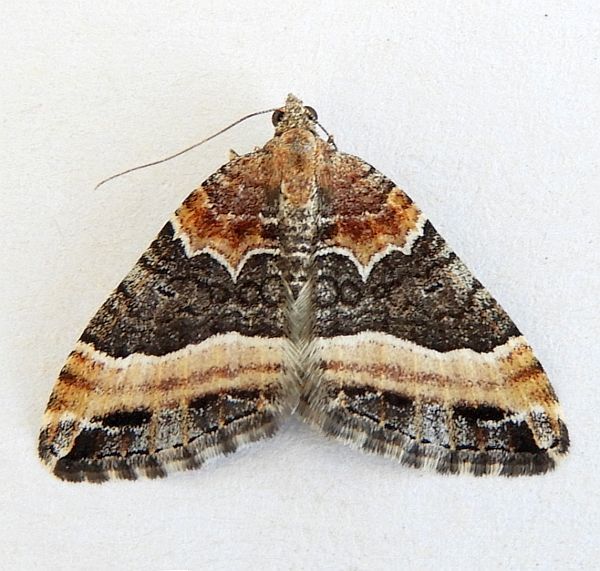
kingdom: Animalia
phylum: Arthropoda
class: Insecta
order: Lepidoptera
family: Geometridae
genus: Xanthorhoe
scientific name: Xanthorhoe mirabilata
